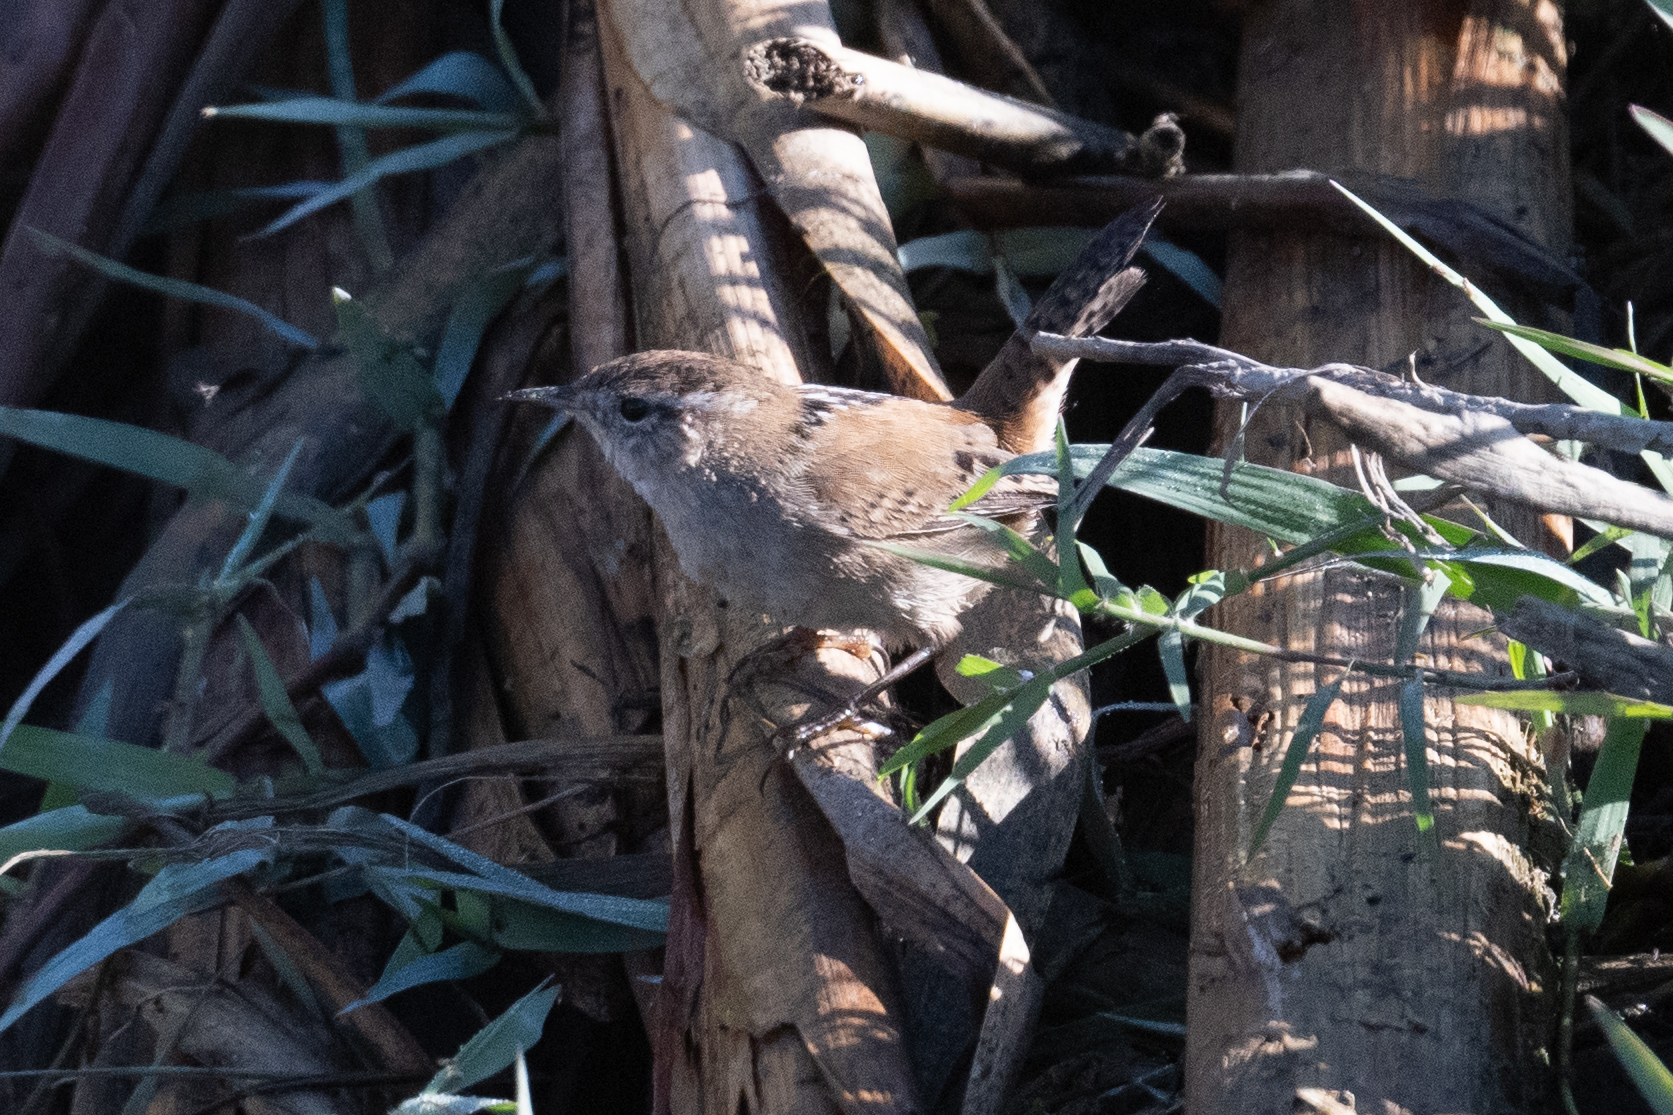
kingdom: Animalia
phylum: Chordata
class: Aves
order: Passeriformes
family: Troglodytidae
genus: Cistothorus
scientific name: Cistothorus palustris
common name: Marsh wren
